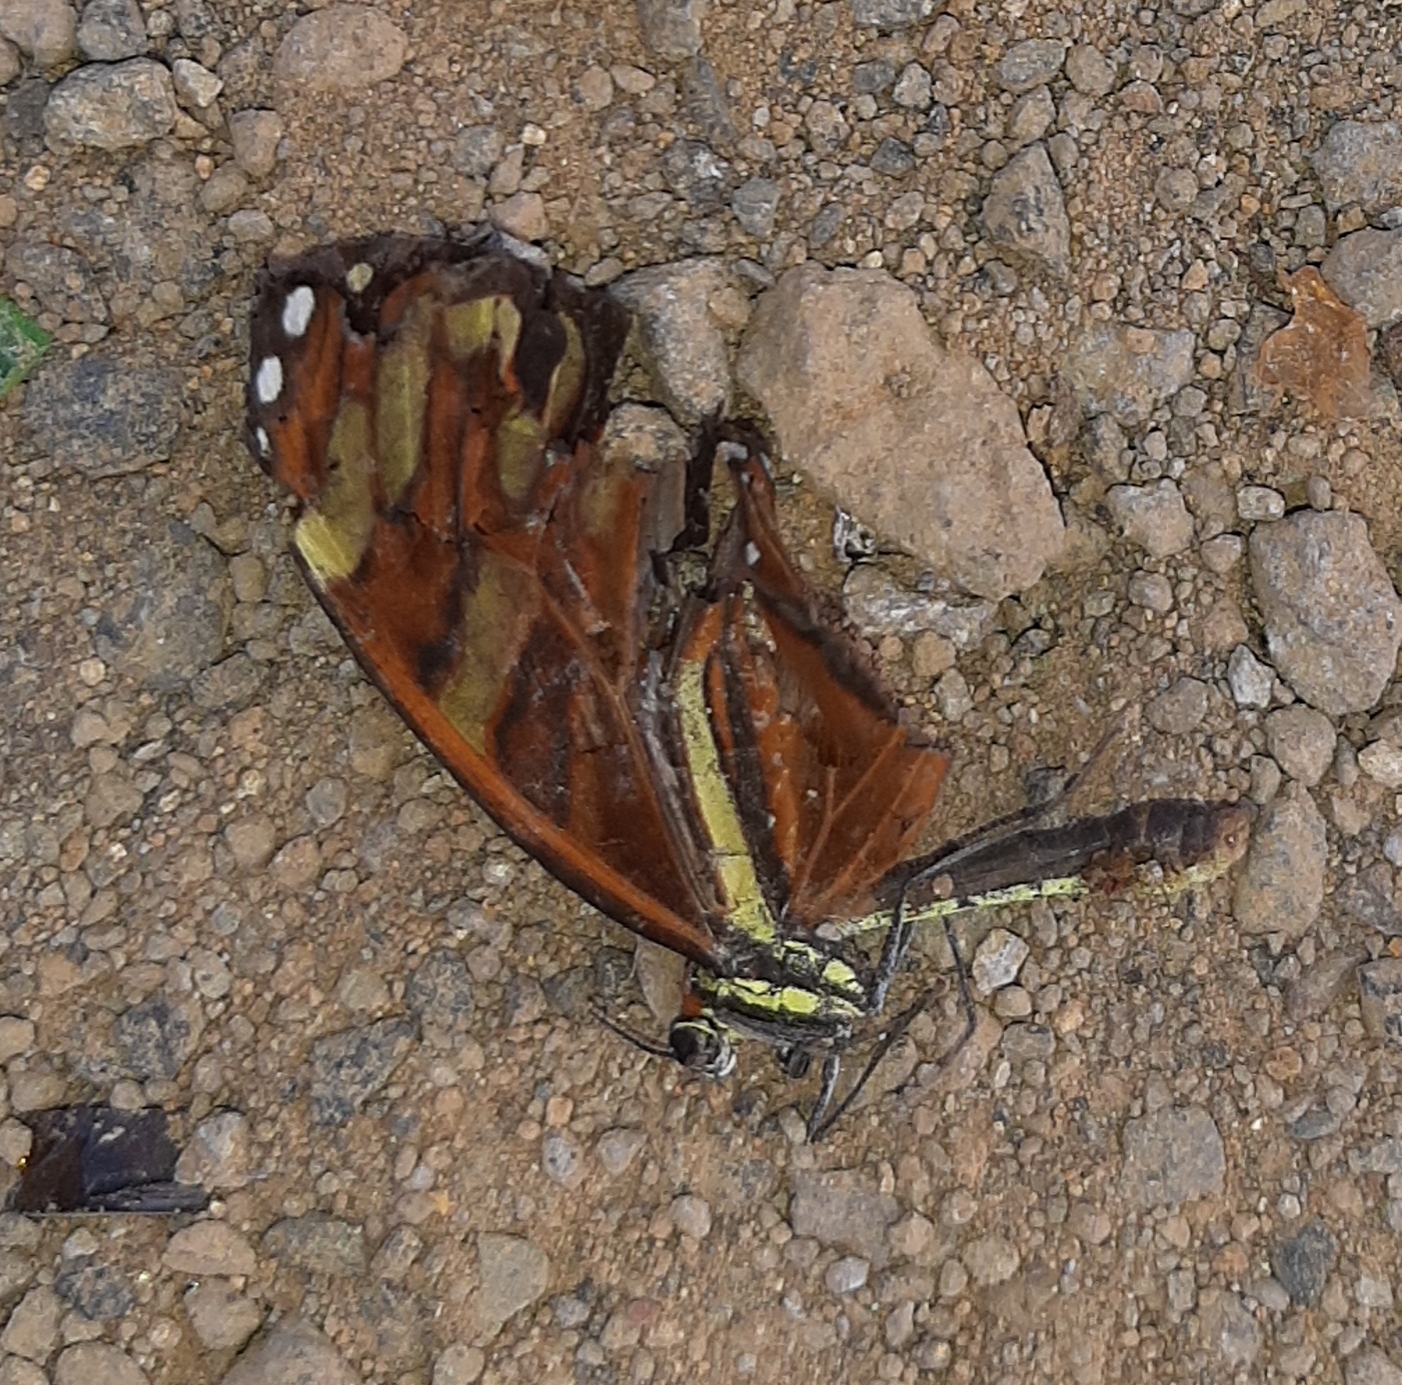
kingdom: Animalia
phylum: Arthropoda
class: Insecta
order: Lepidoptera
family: Nymphalidae
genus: Ithomia
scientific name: Ithomia heraldica
